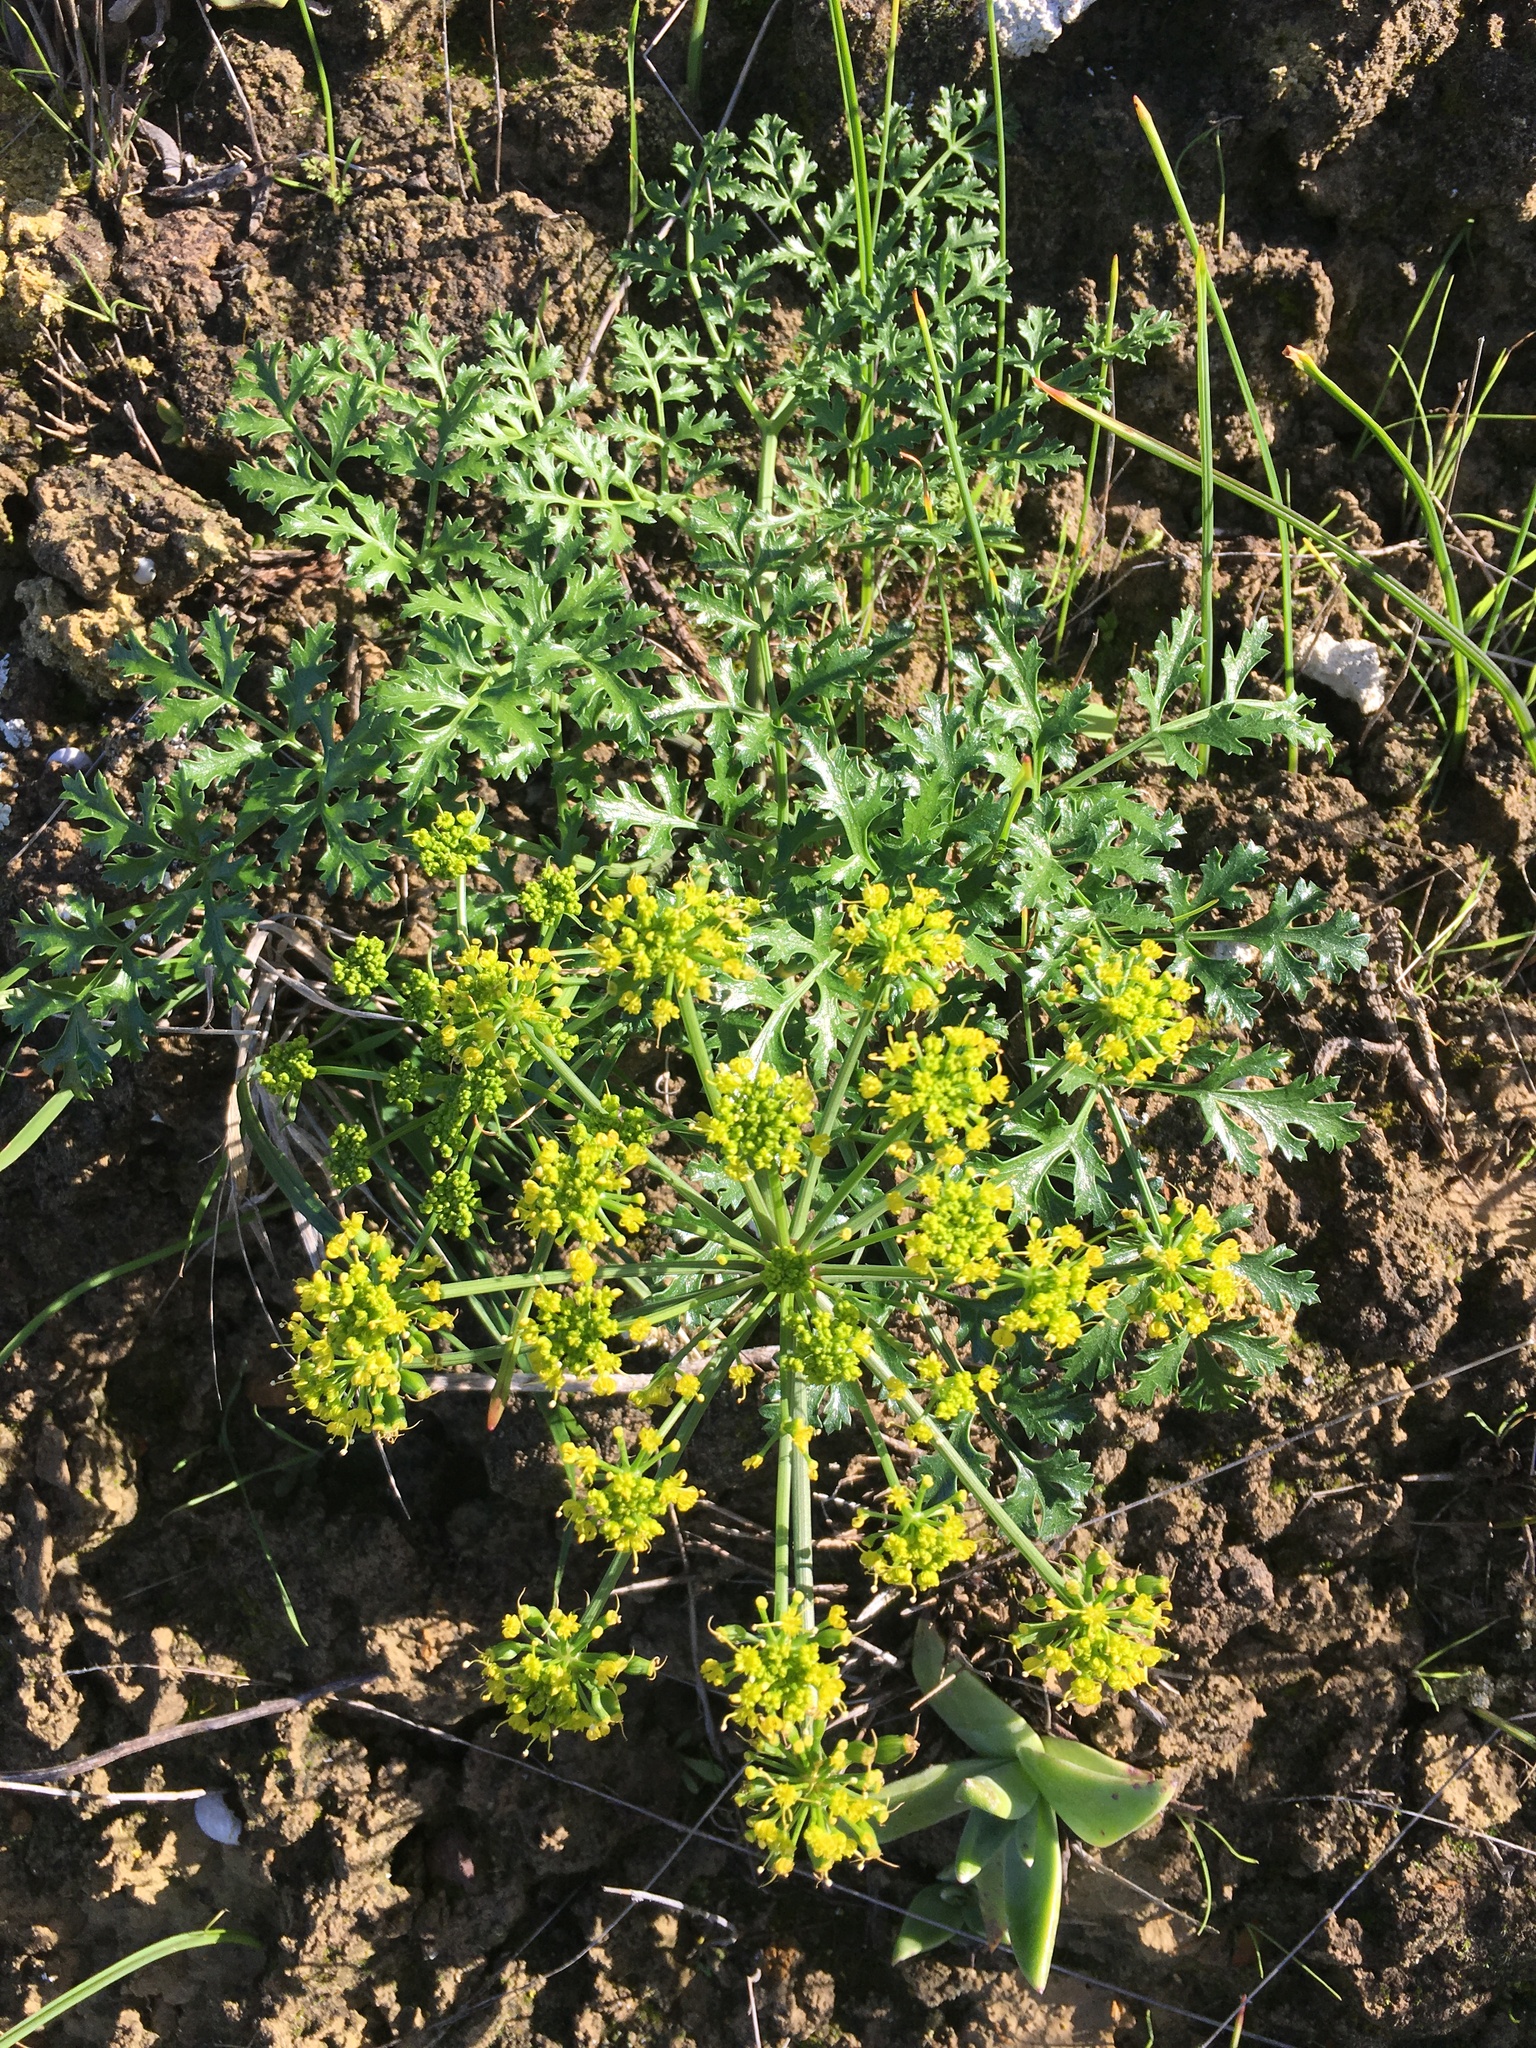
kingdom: Plantae
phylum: Tracheophyta
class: Magnoliopsida
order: Apiales
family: Apiaceae
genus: Lomatium
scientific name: Lomatium insulare
